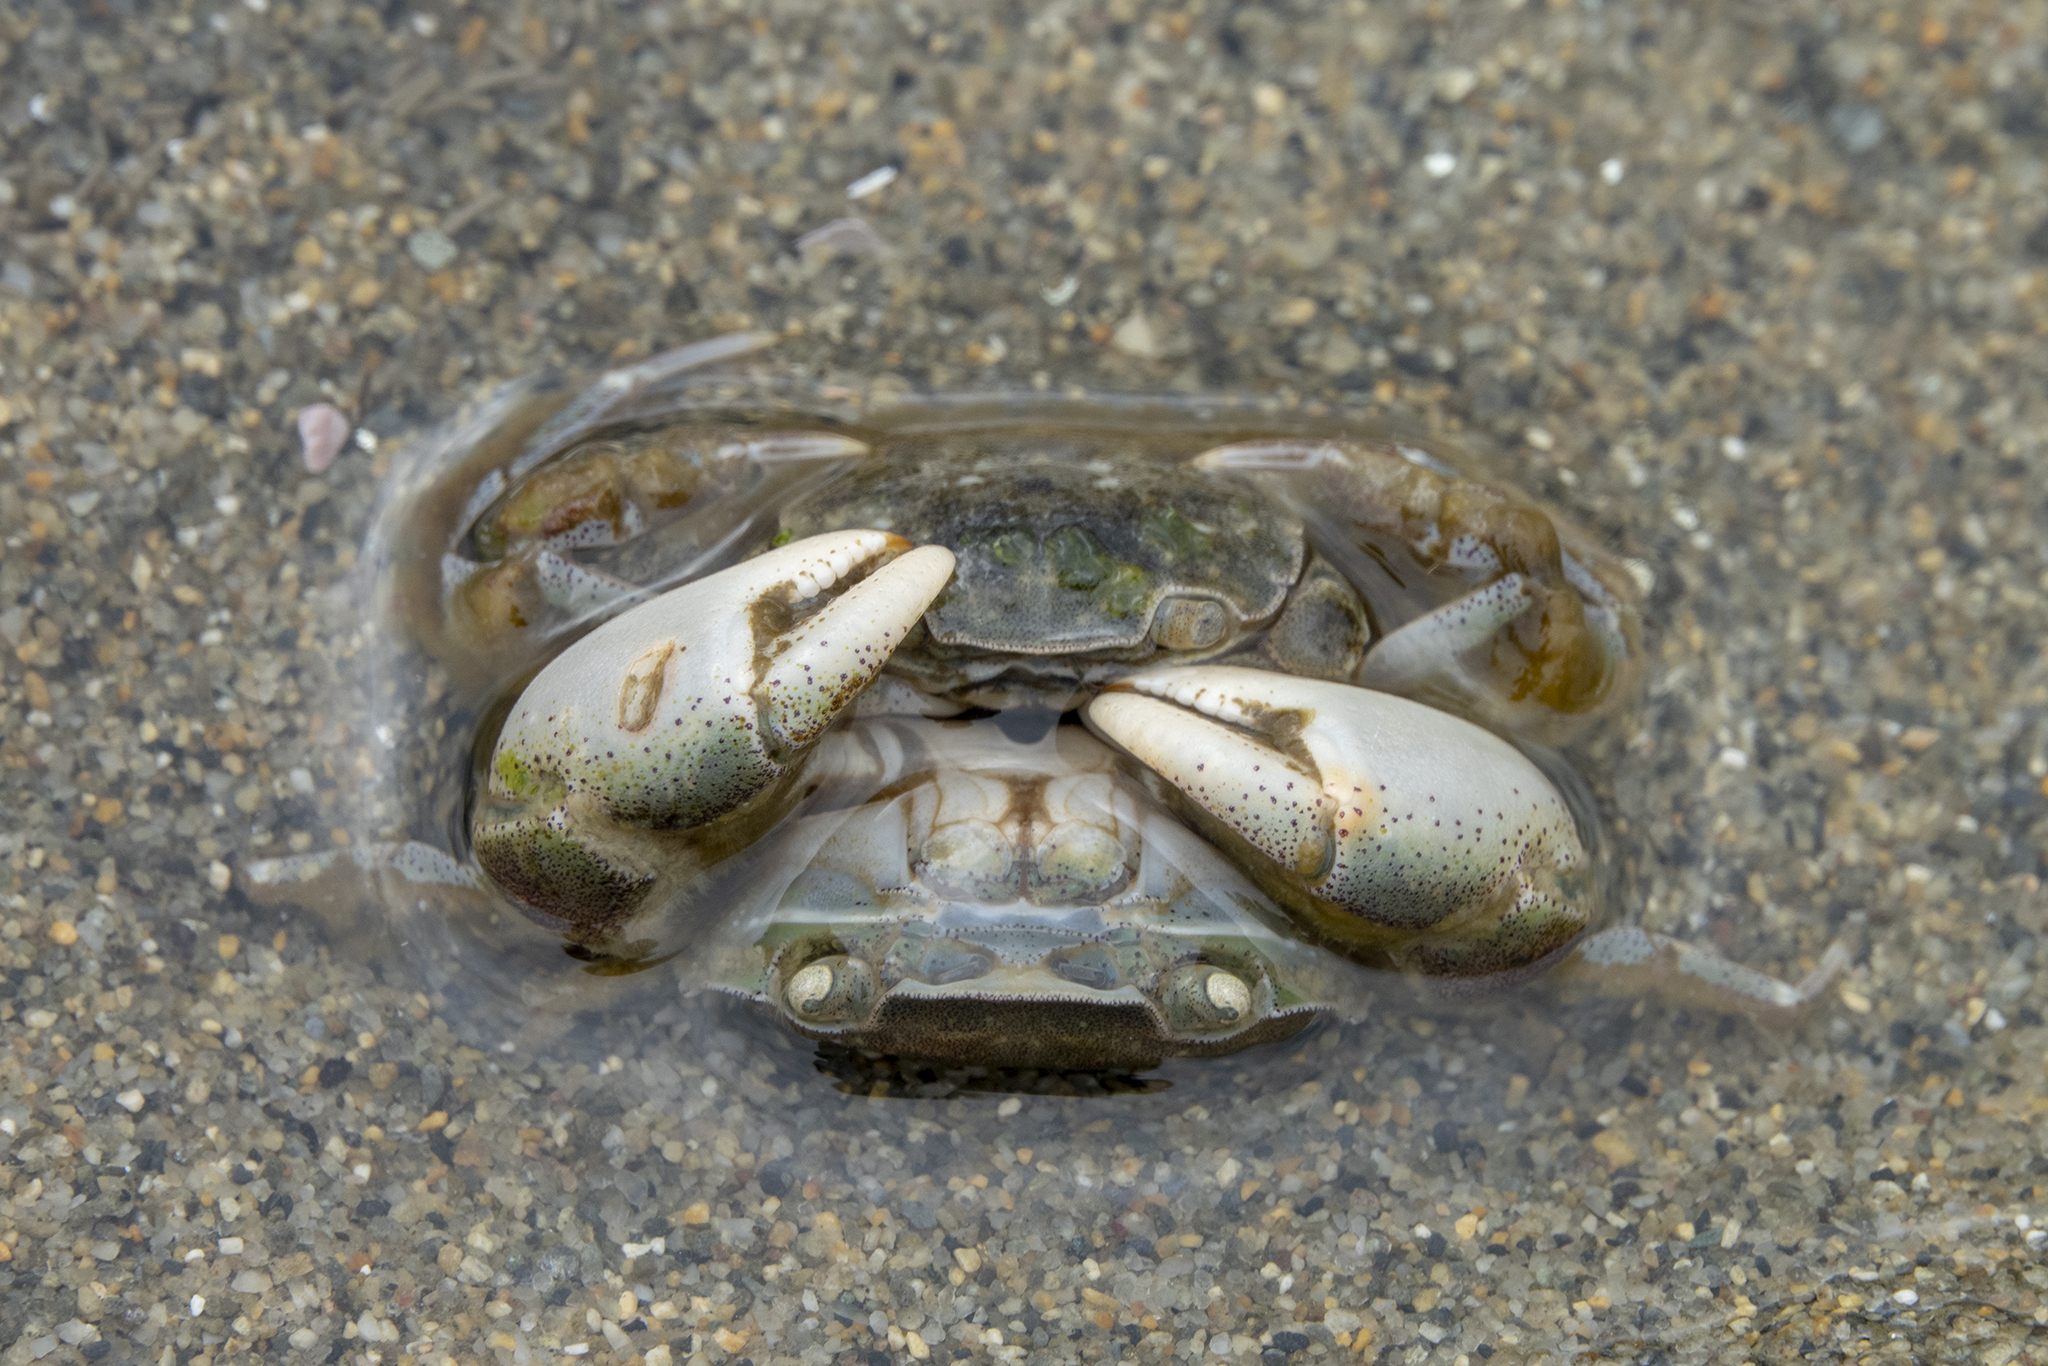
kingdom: Animalia
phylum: Arthropoda
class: Malacostraca
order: Decapoda
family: Varunidae
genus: Hemigrapsus
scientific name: Hemigrapsus crenulatus
